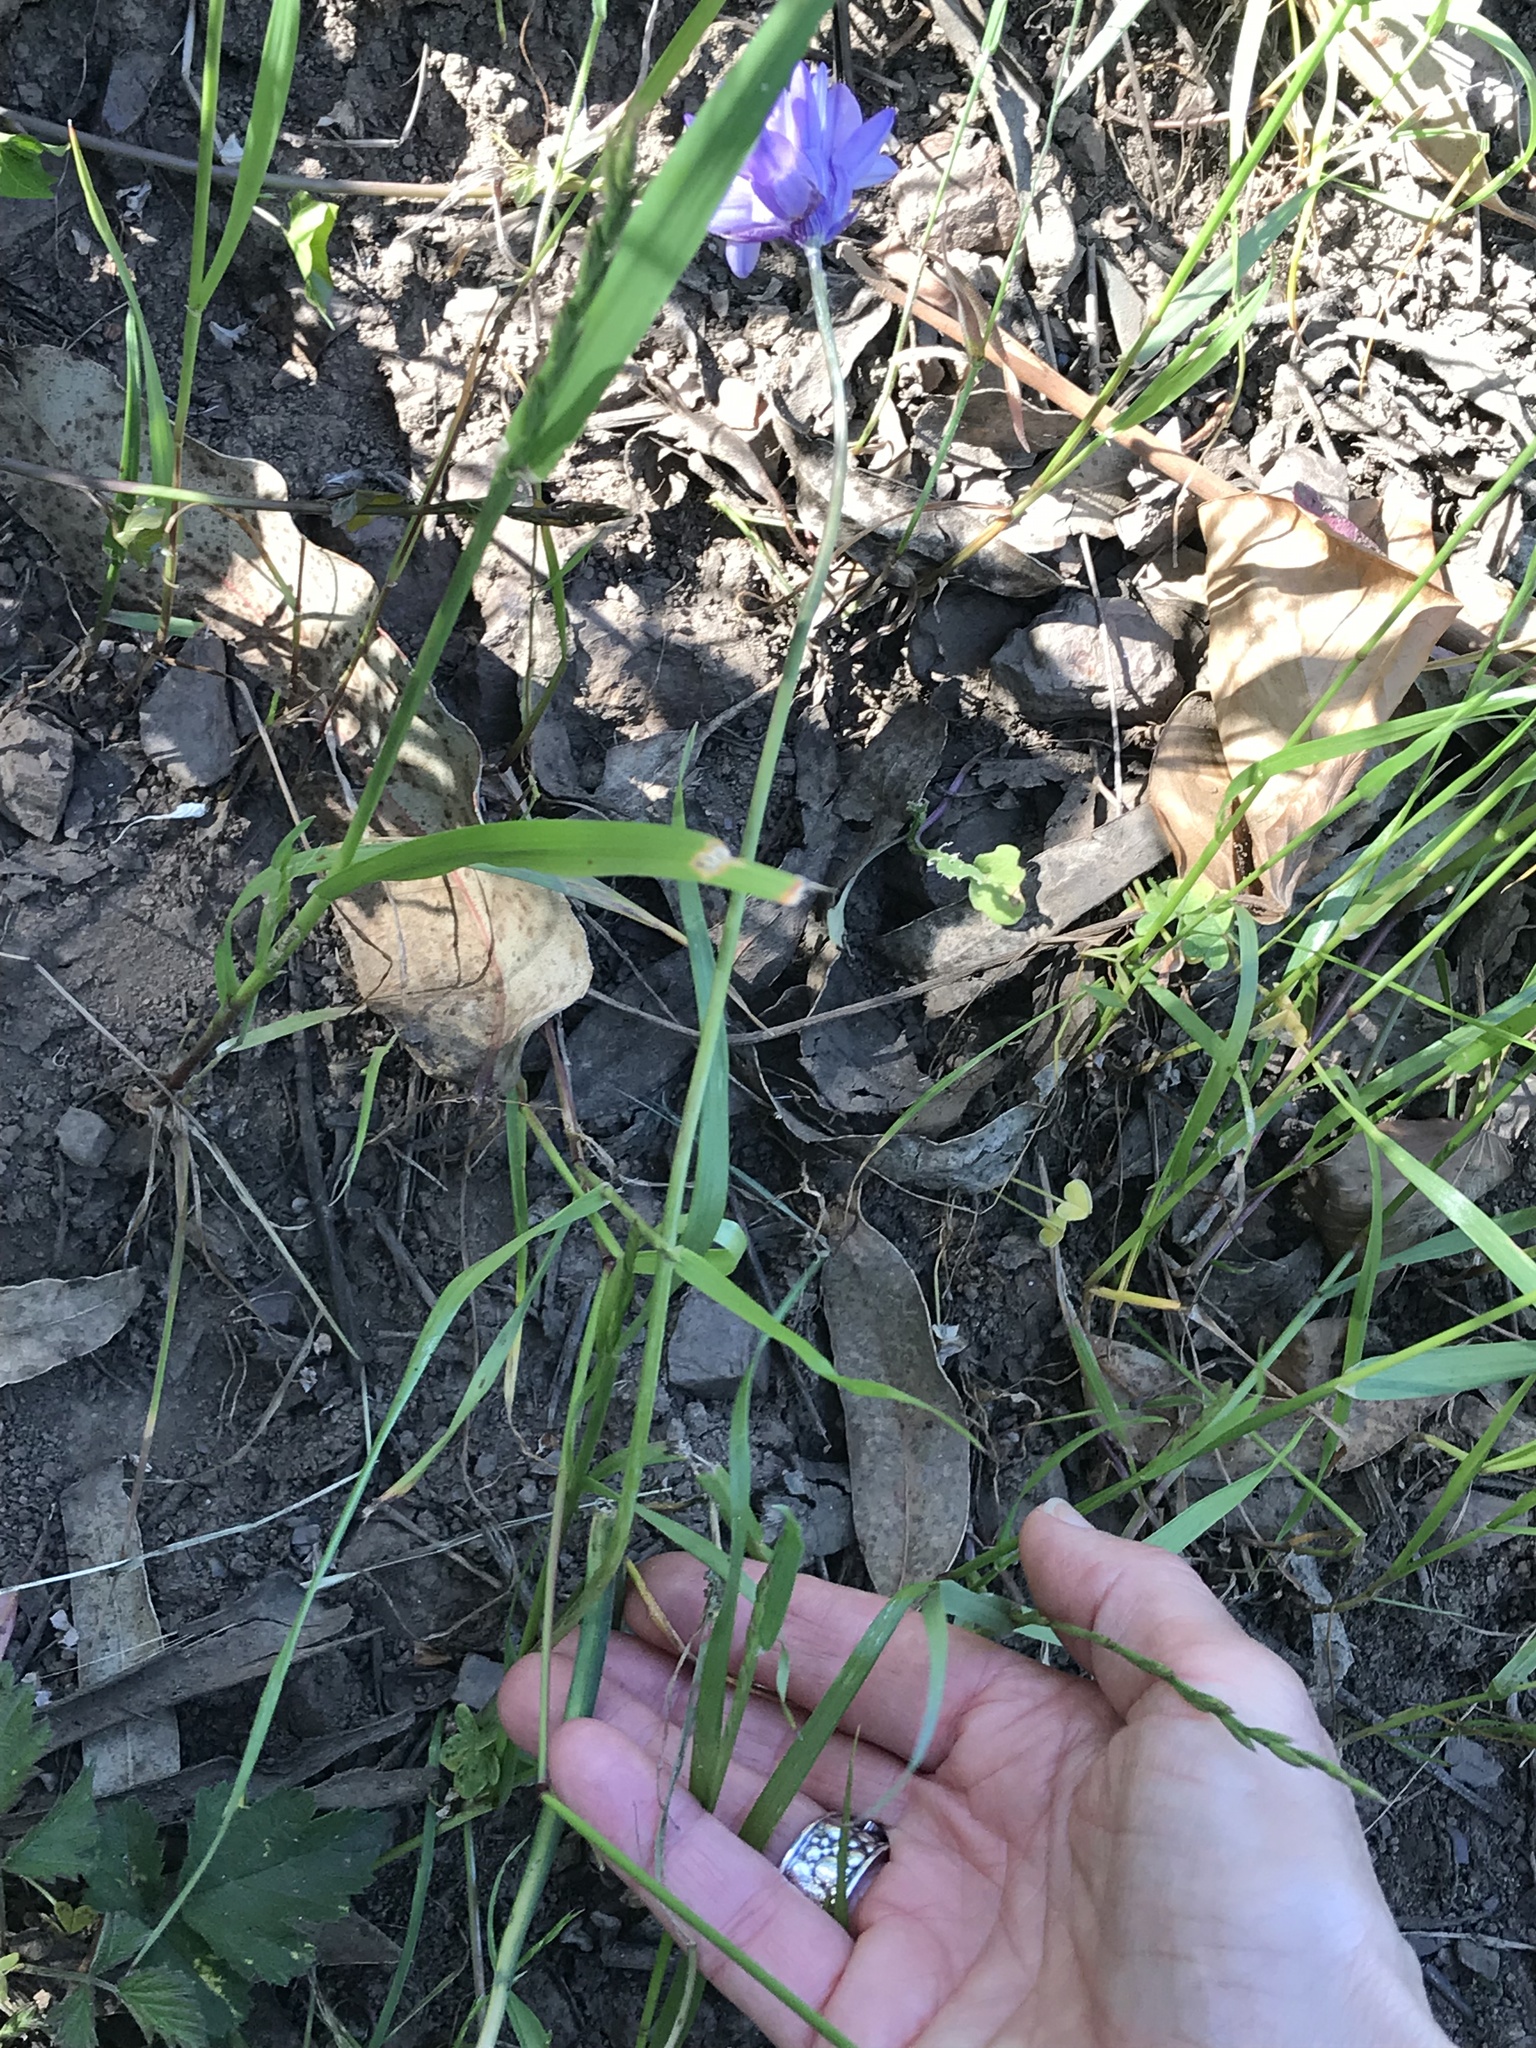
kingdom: Plantae
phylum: Tracheophyta
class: Liliopsida
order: Asparagales
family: Asparagaceae
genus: Dipterostemon
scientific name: Dipterostemon capitatus
